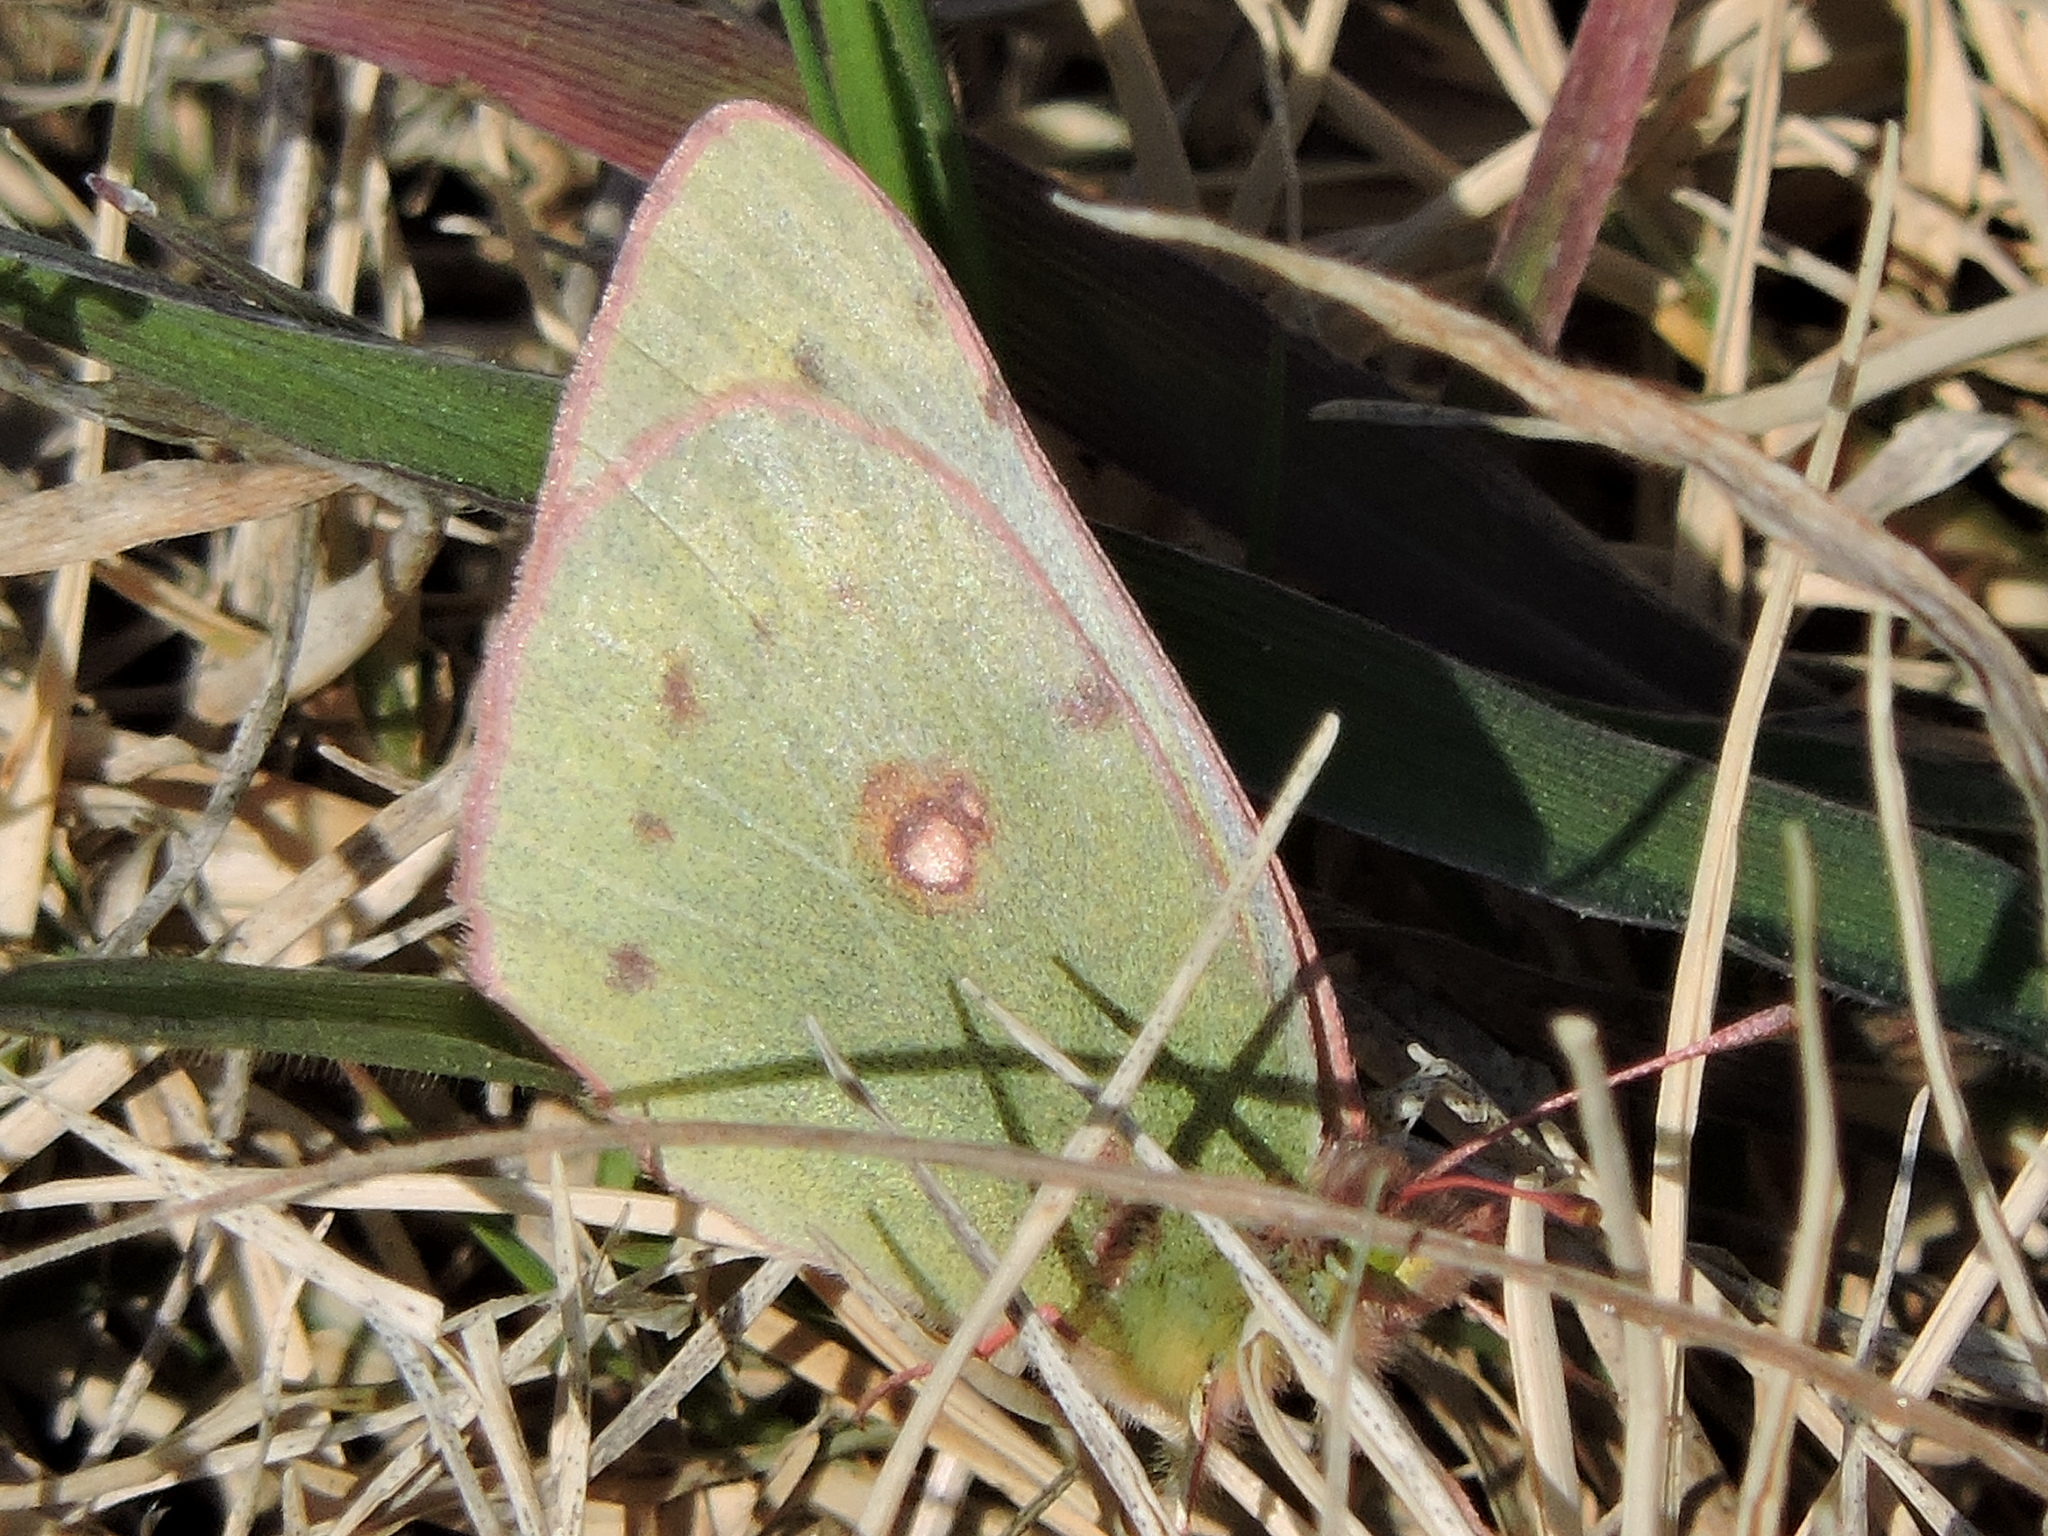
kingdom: Animalia
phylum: Arthropoda
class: Insecta
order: Lepidoptera
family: Pieridae
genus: Colias
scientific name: Colias eurytheme
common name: Alfalfa butterfly
